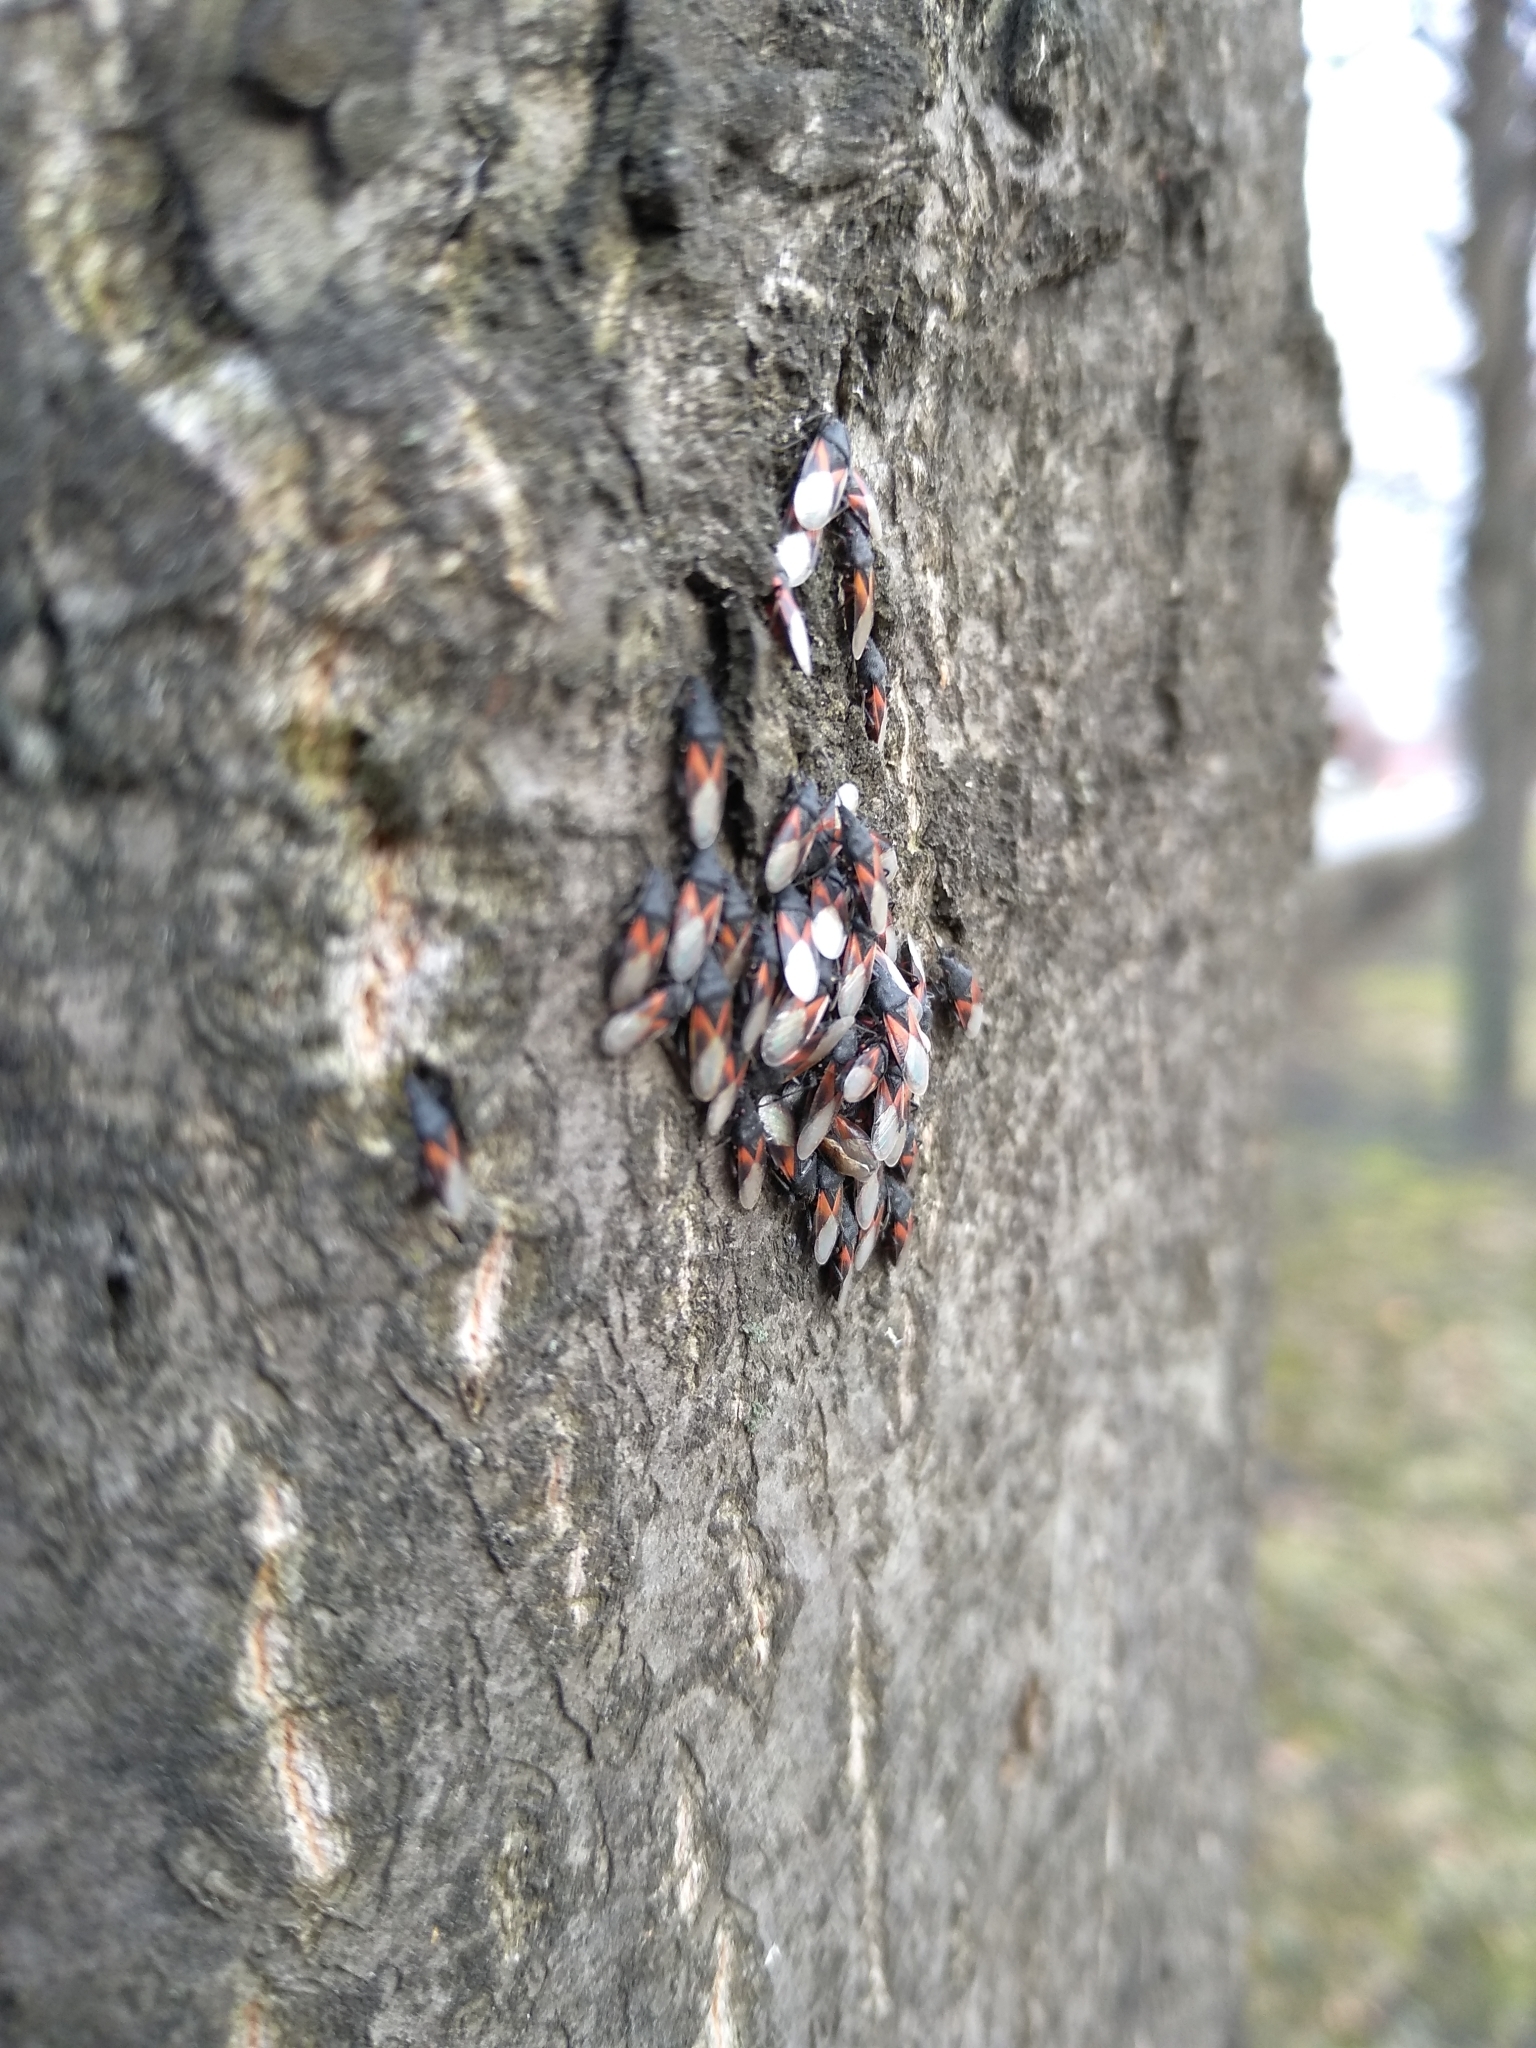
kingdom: Animalia
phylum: Arthropoda
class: Insecta
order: Hemiptera
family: Oxycarenidae
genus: Oxycarenus
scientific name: Oxycarenus lavaterae
